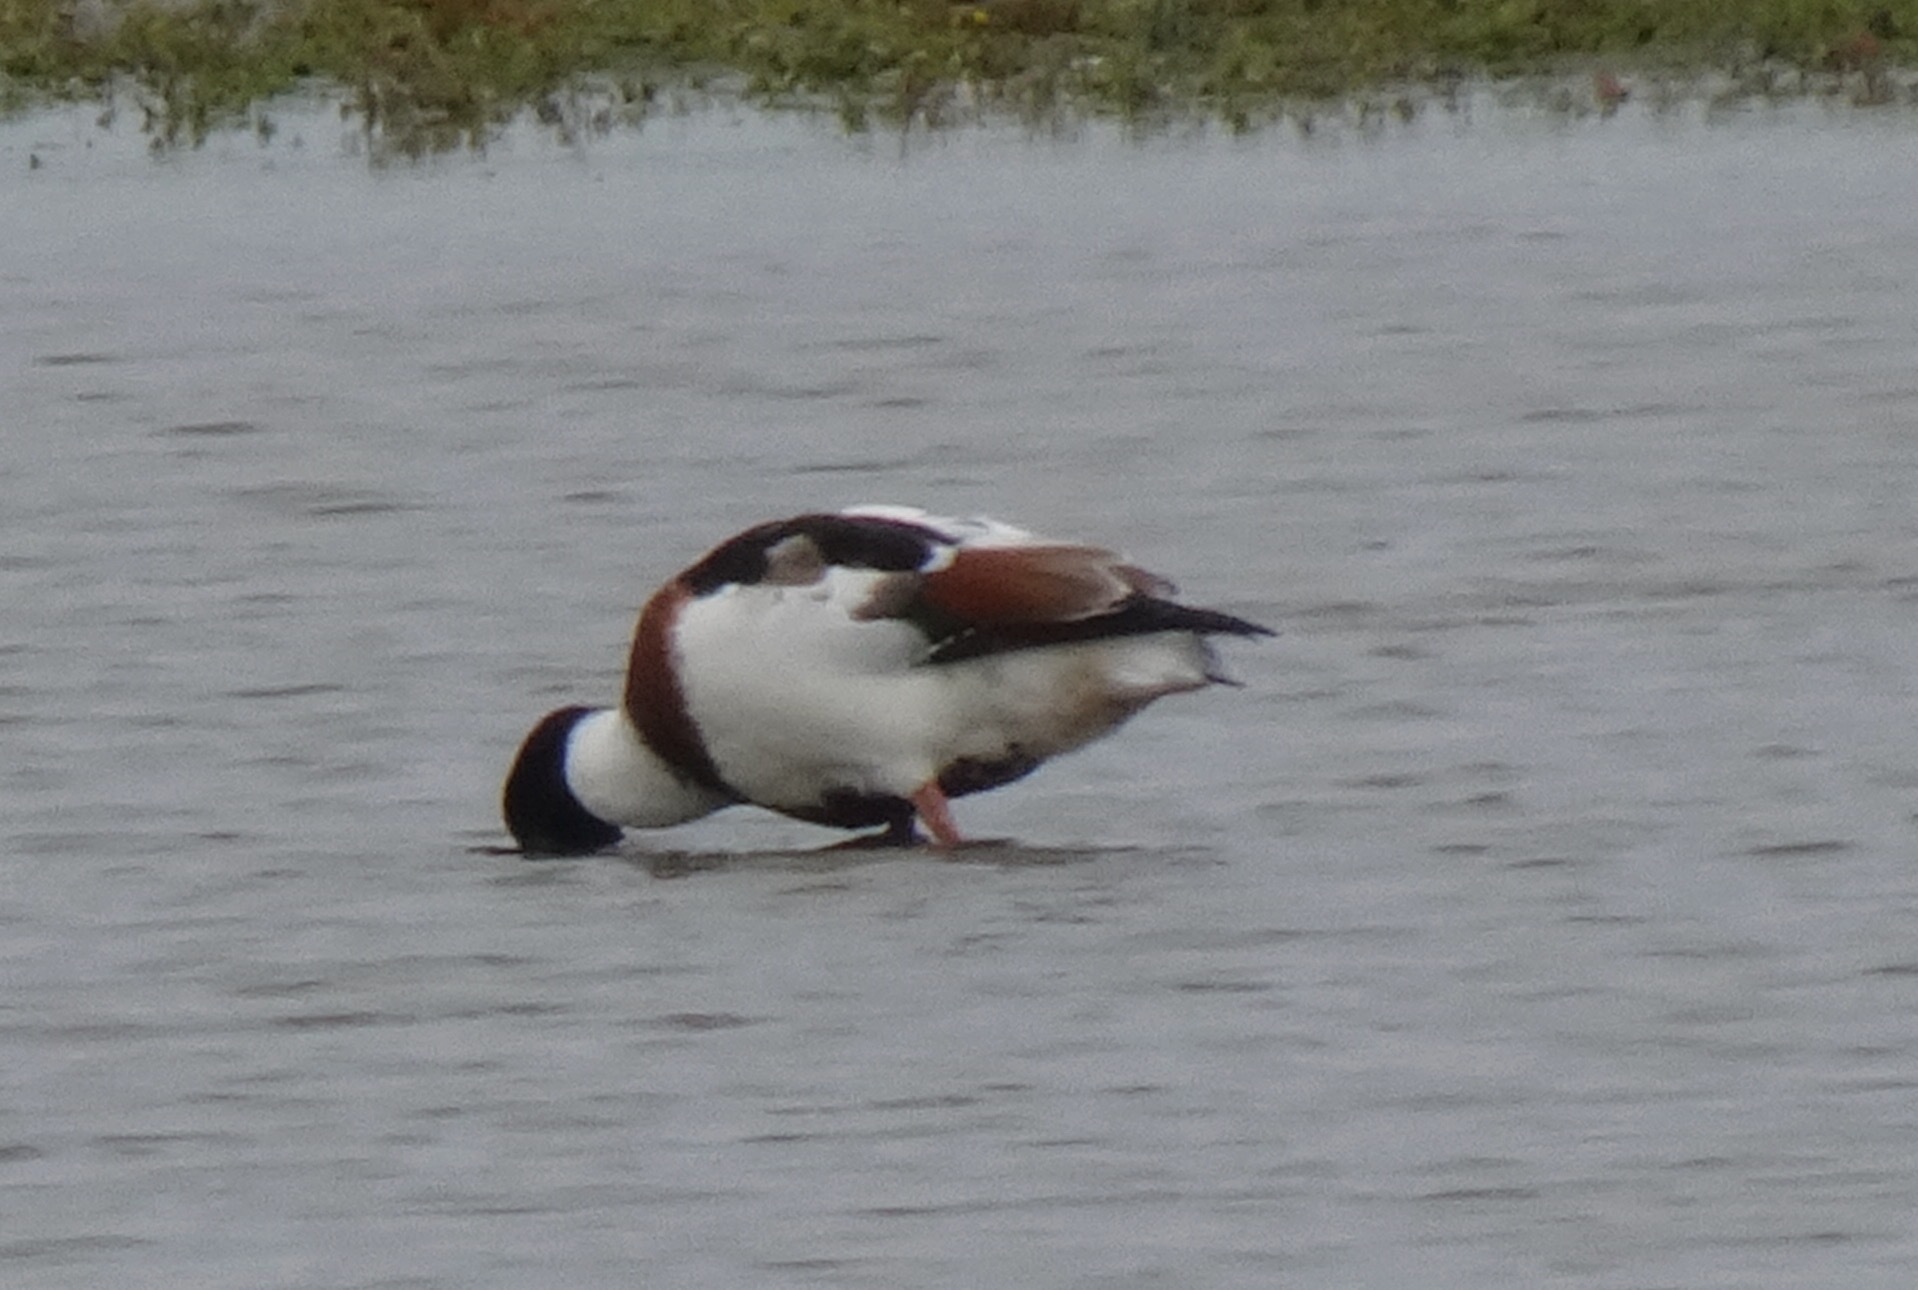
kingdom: Animalia
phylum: Chordata
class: Aves
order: Anseriformes
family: Anatidae
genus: Tadorna
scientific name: Tadorna tadorna
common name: Common shelduck
